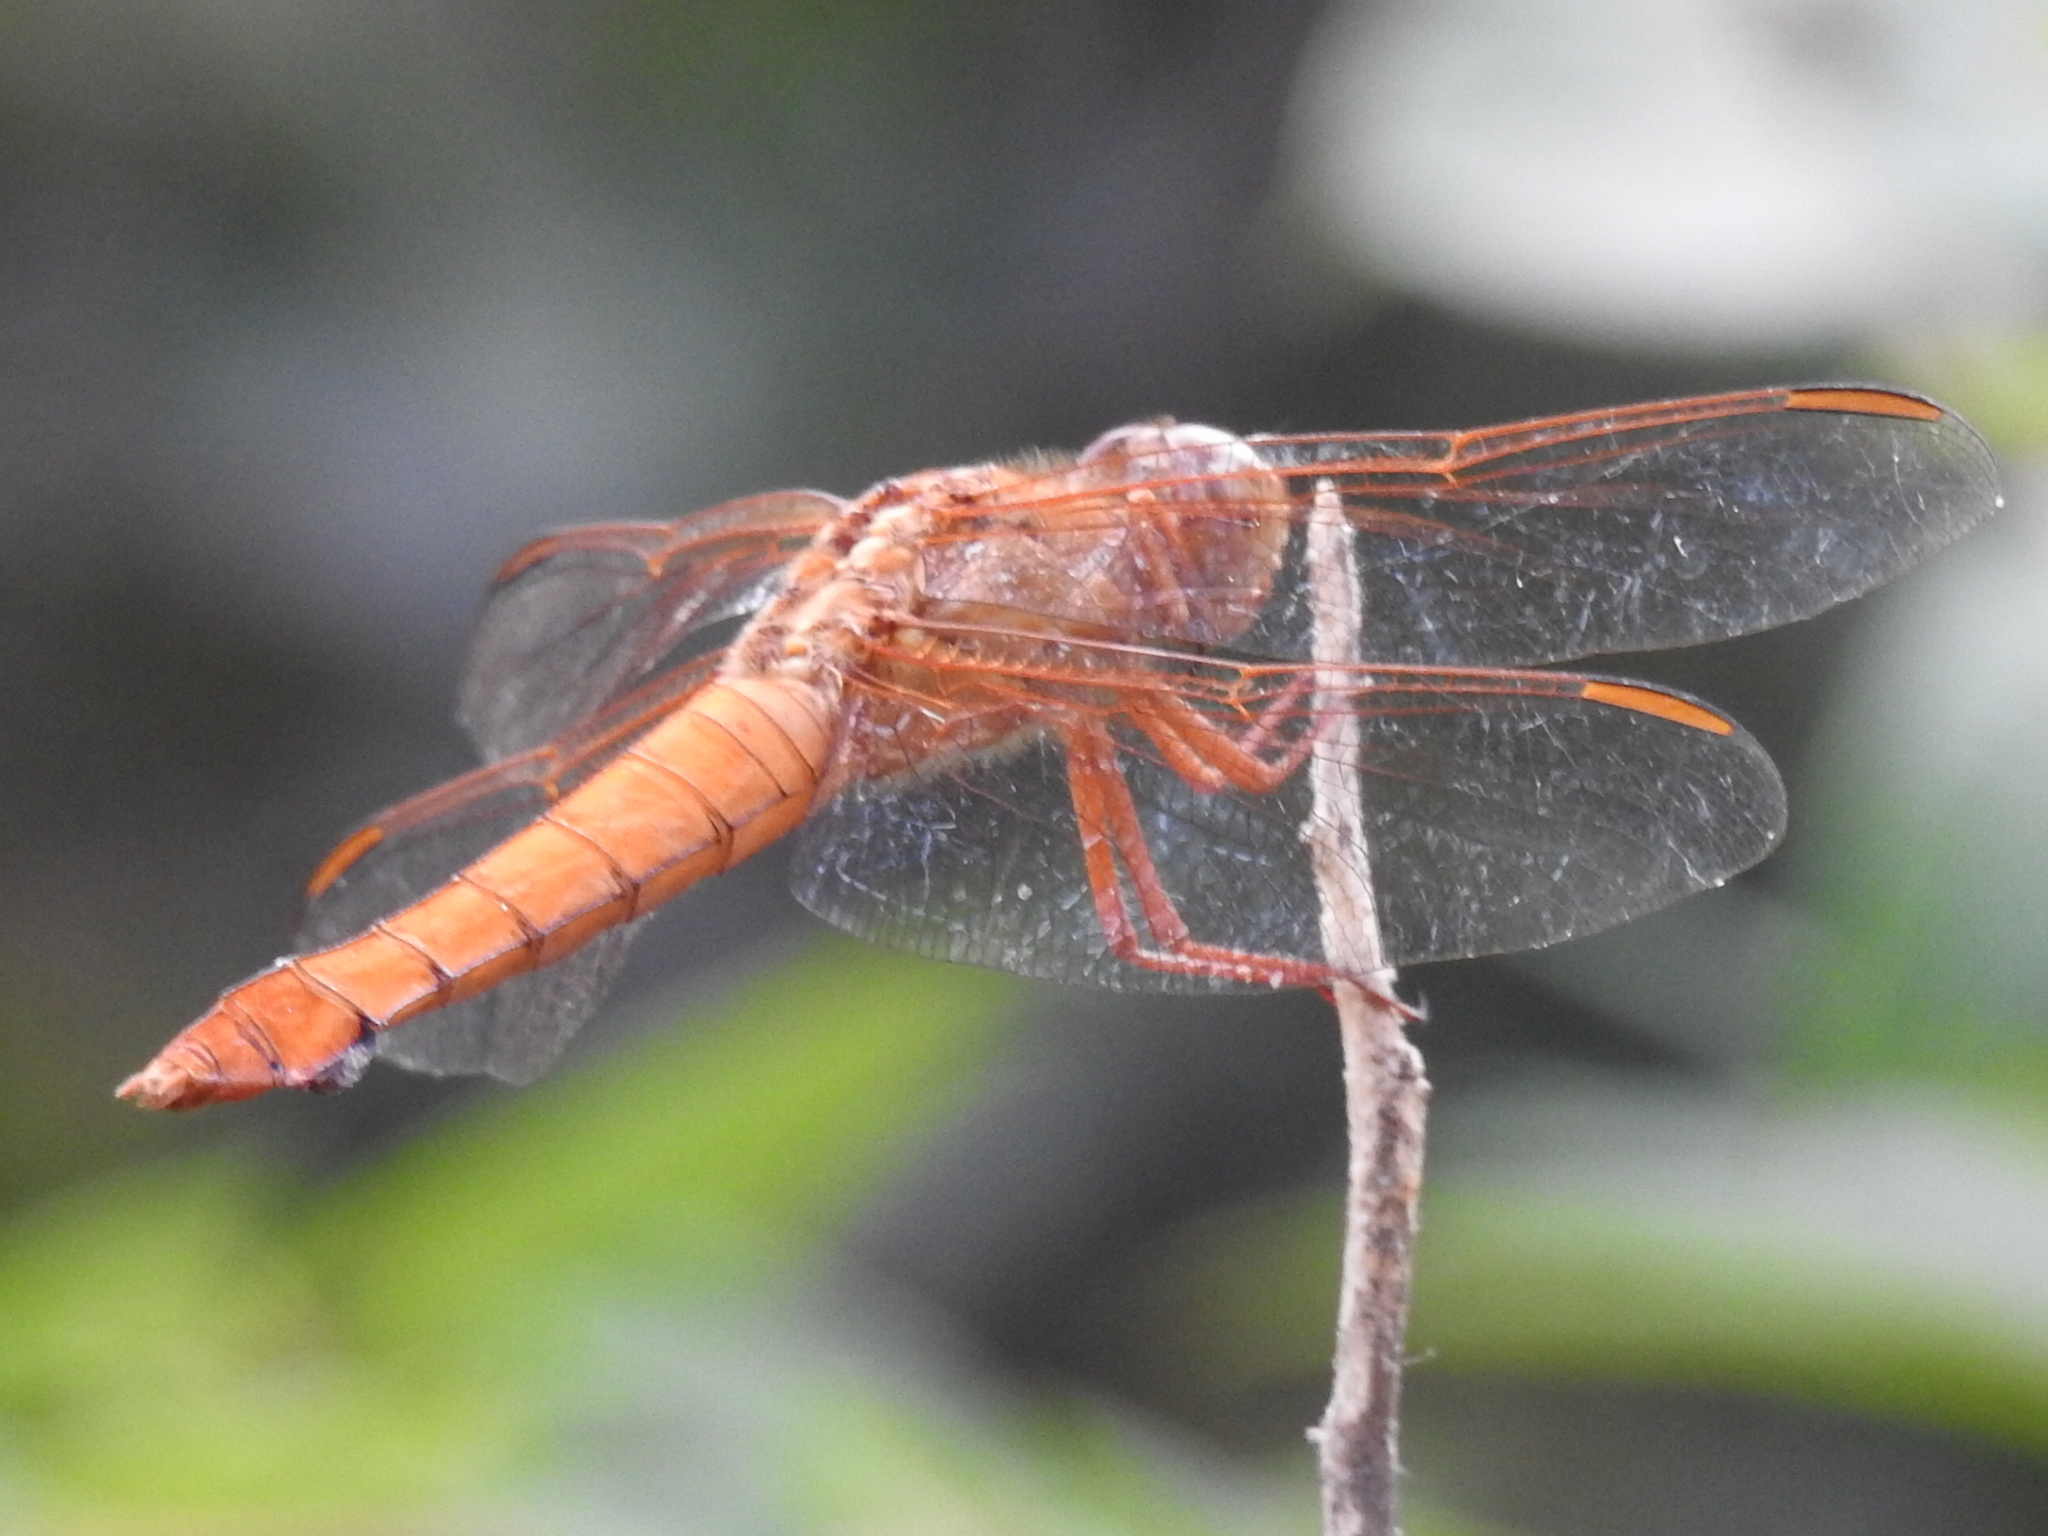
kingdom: Animalia
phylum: Arthropoda
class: Insecta
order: Odonata
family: Libellulidae
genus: Libellula
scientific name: Libellula croceipennis
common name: Neon skimmer
